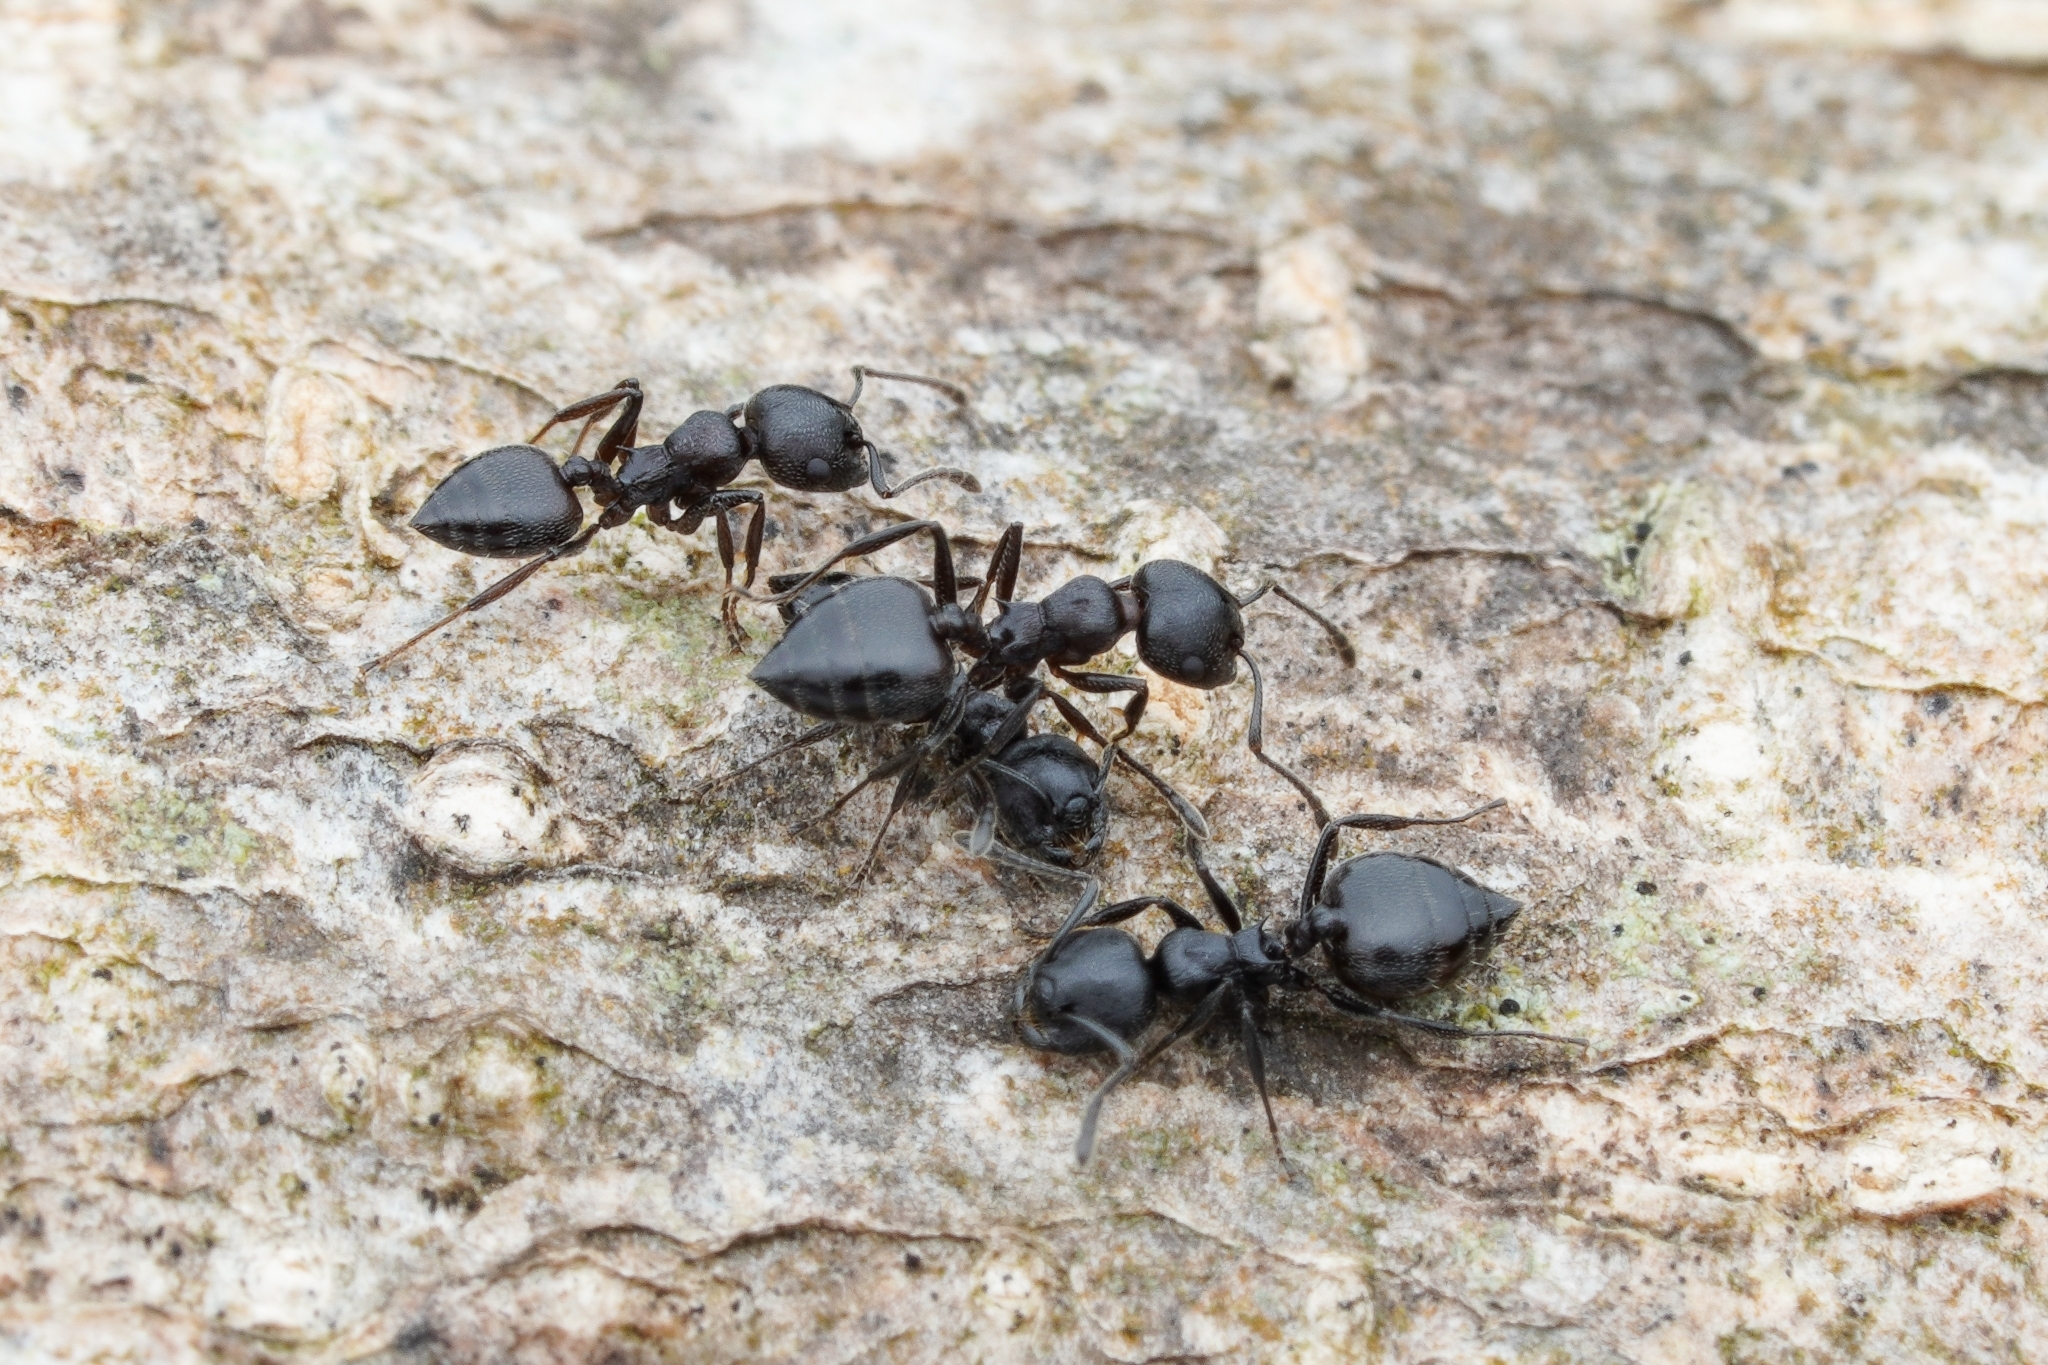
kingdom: Animalia
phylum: Arthropoda
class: Insecta
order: Hymenoptera
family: Formicidae
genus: Crematogaster
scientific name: Crematogaster peringueyi
